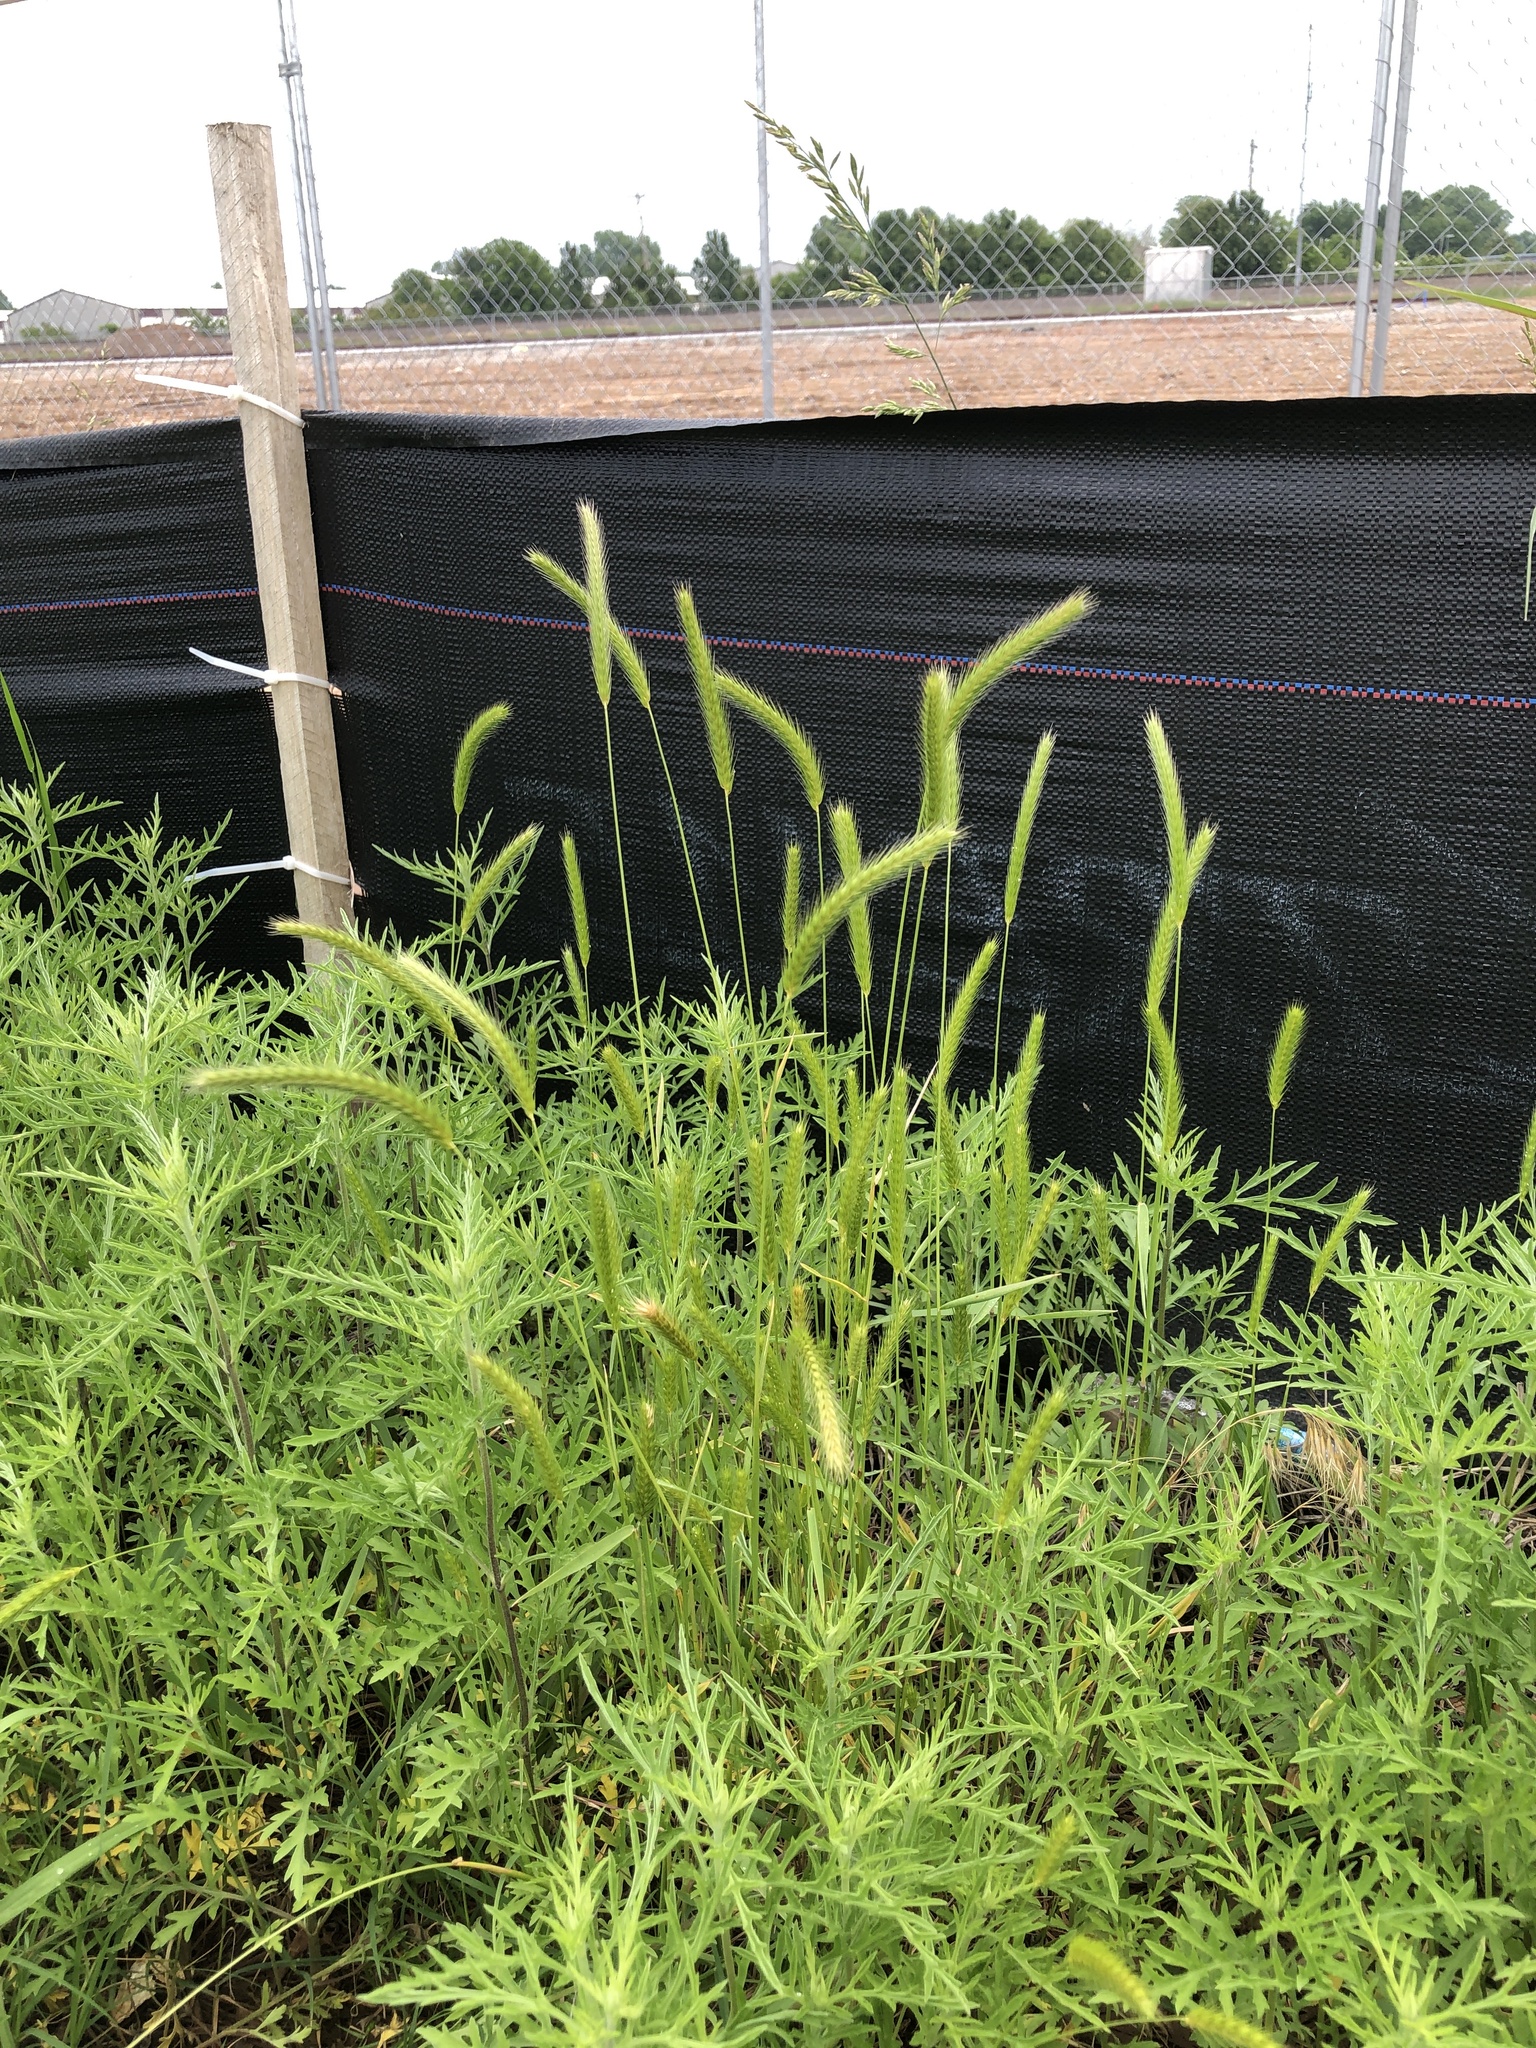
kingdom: Plantae
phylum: Tracheophyta
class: Liliopsida
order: Poales
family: Poaceae
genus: Hordeum
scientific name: Hordeum pusillum
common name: Little barley
